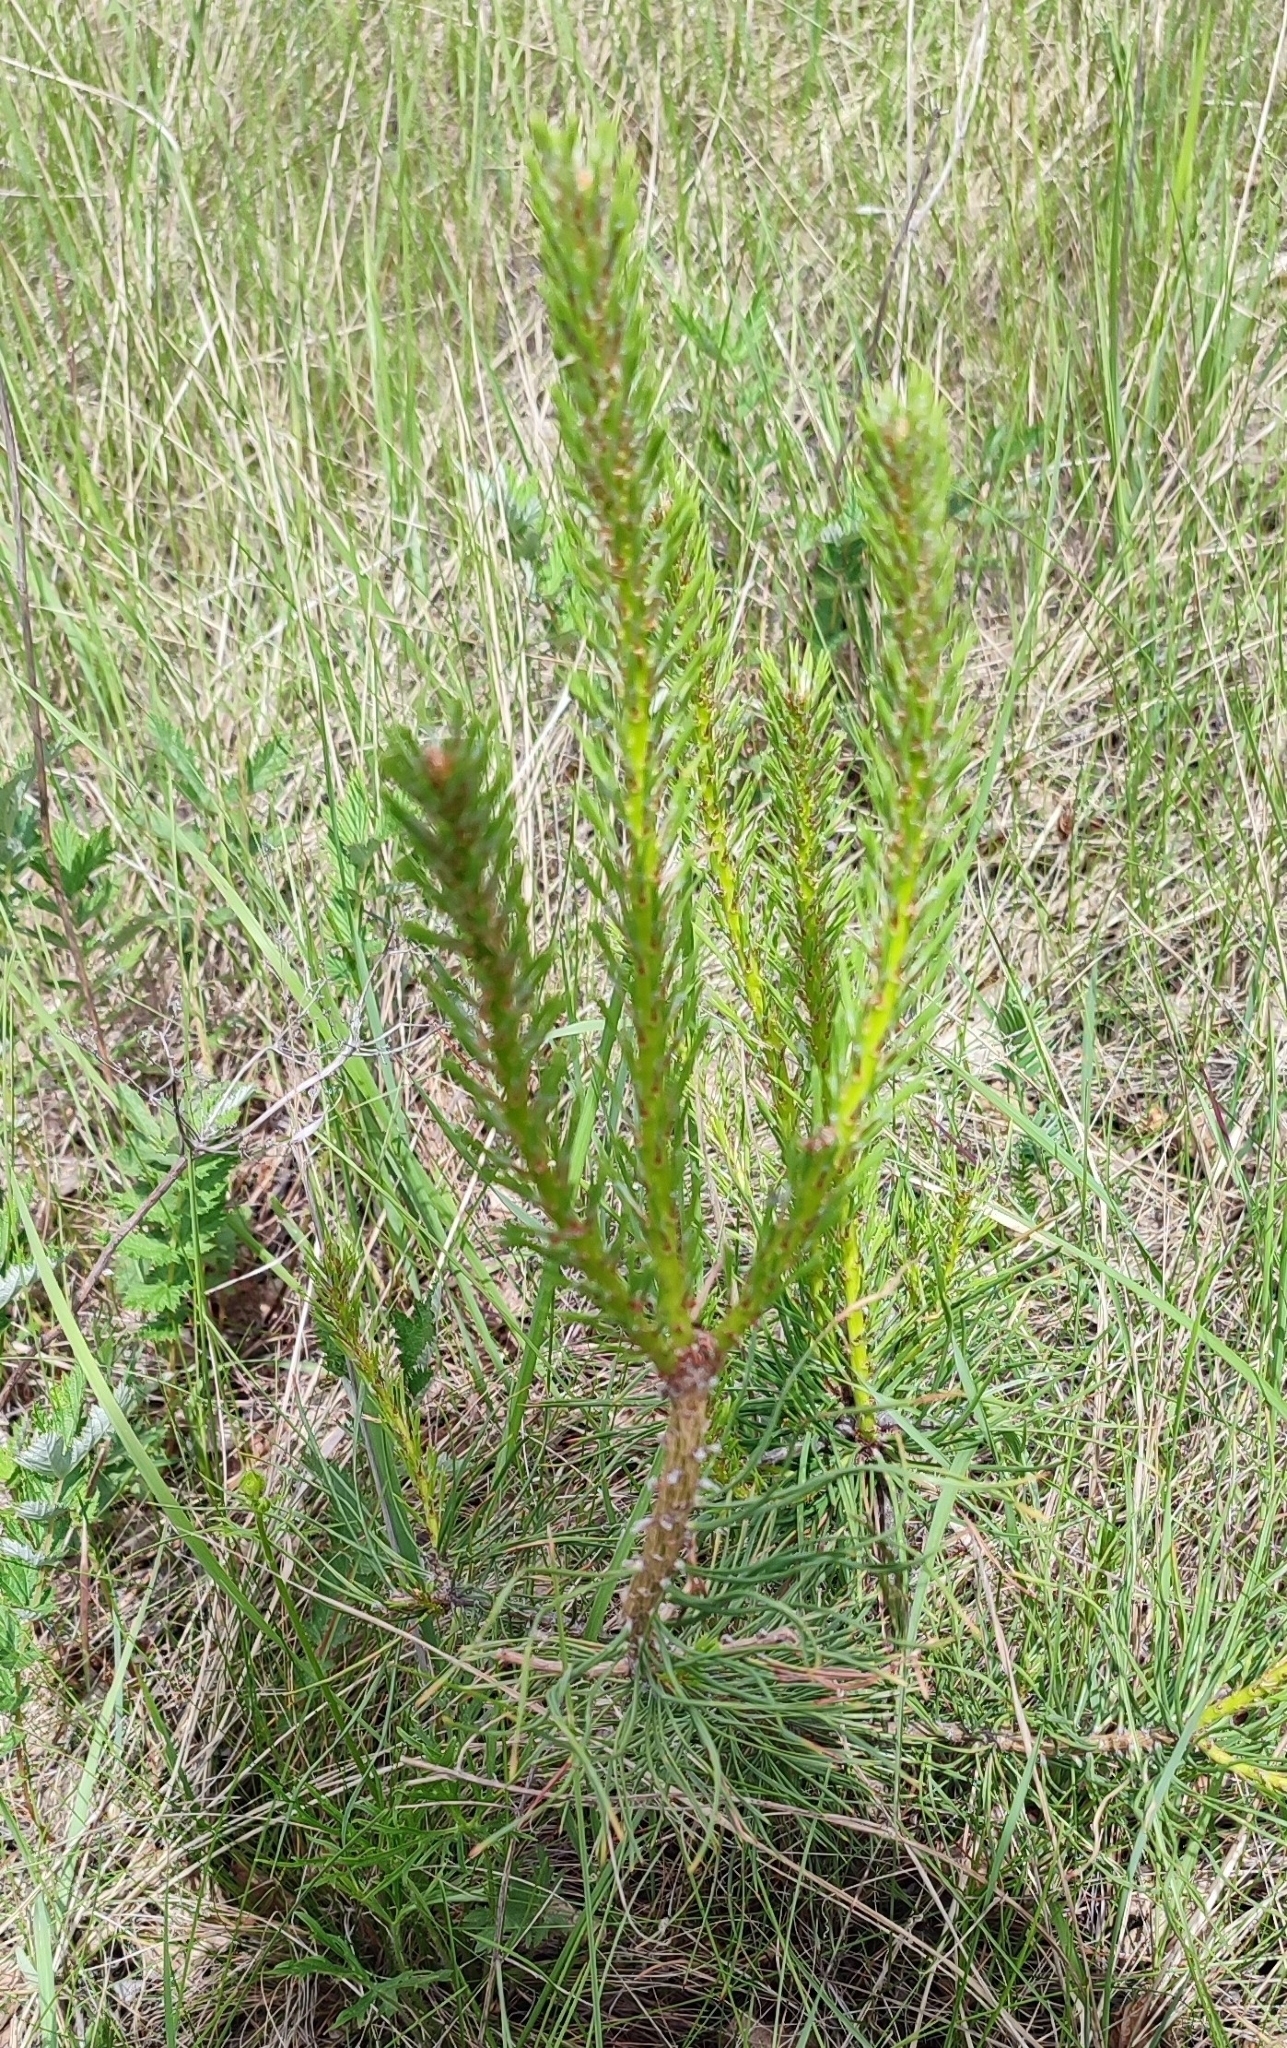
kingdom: Plantae
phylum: Tracheophyta
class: Pinopsida
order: Pinales
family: Pinaceae
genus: Pinus
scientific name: Pinus sylvestris
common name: Scots pine
